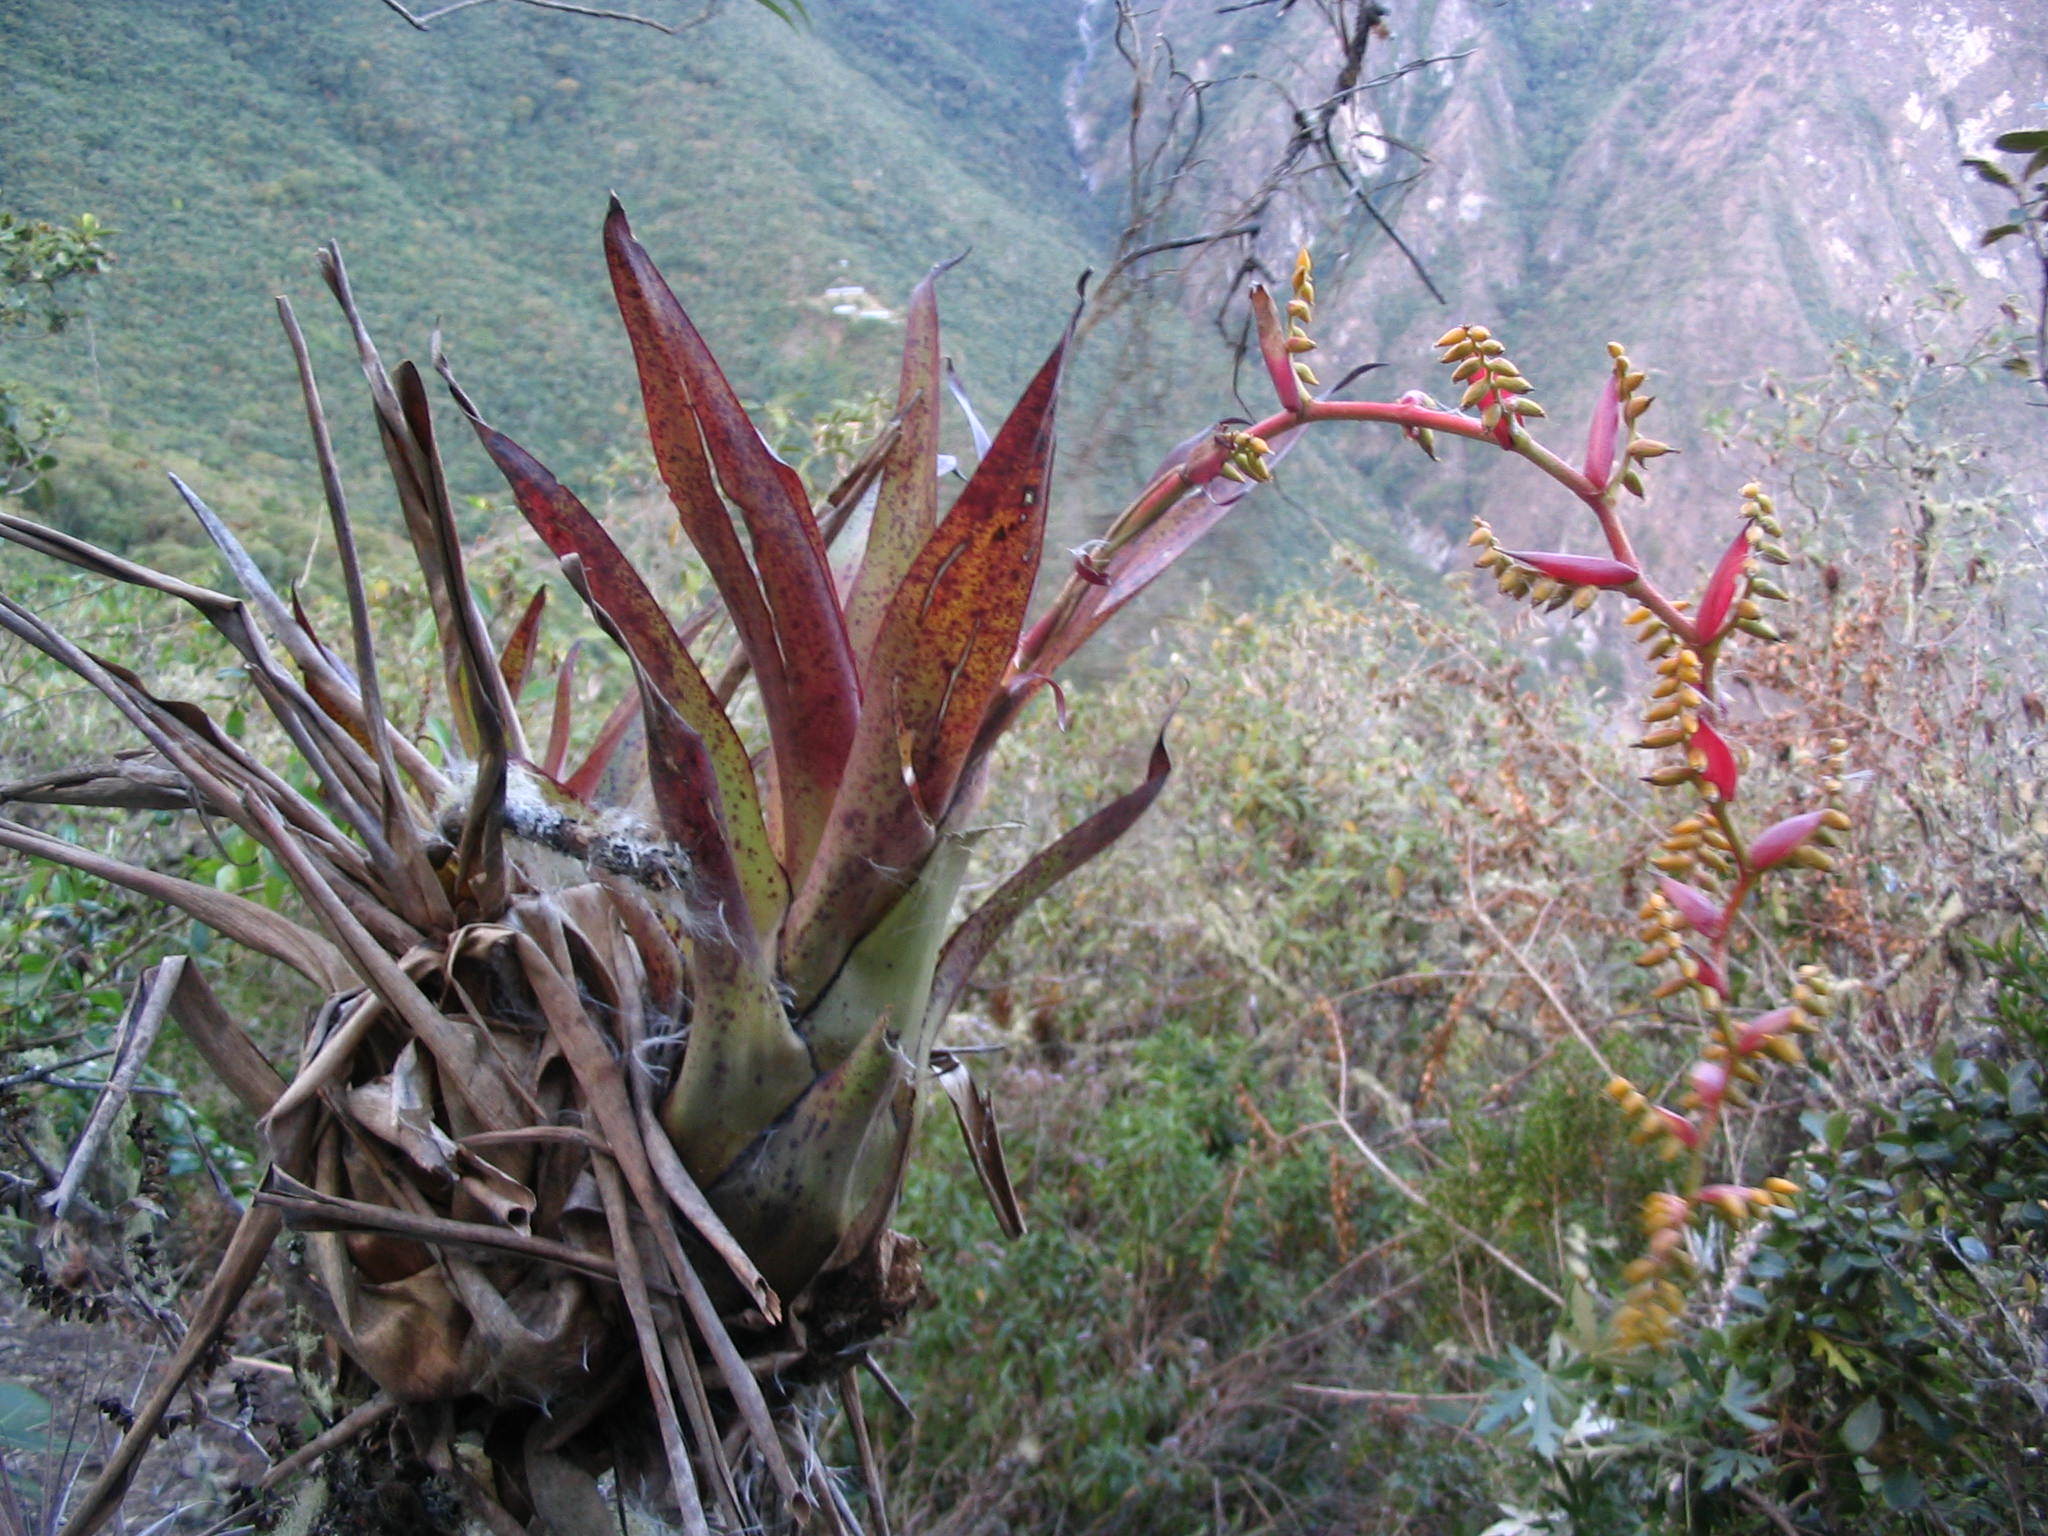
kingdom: Plantae
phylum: Tracheophyta
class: Liliopsida
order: Poales
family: Bromeliaceae
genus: Racinaea
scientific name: Racinaea tetrantha
